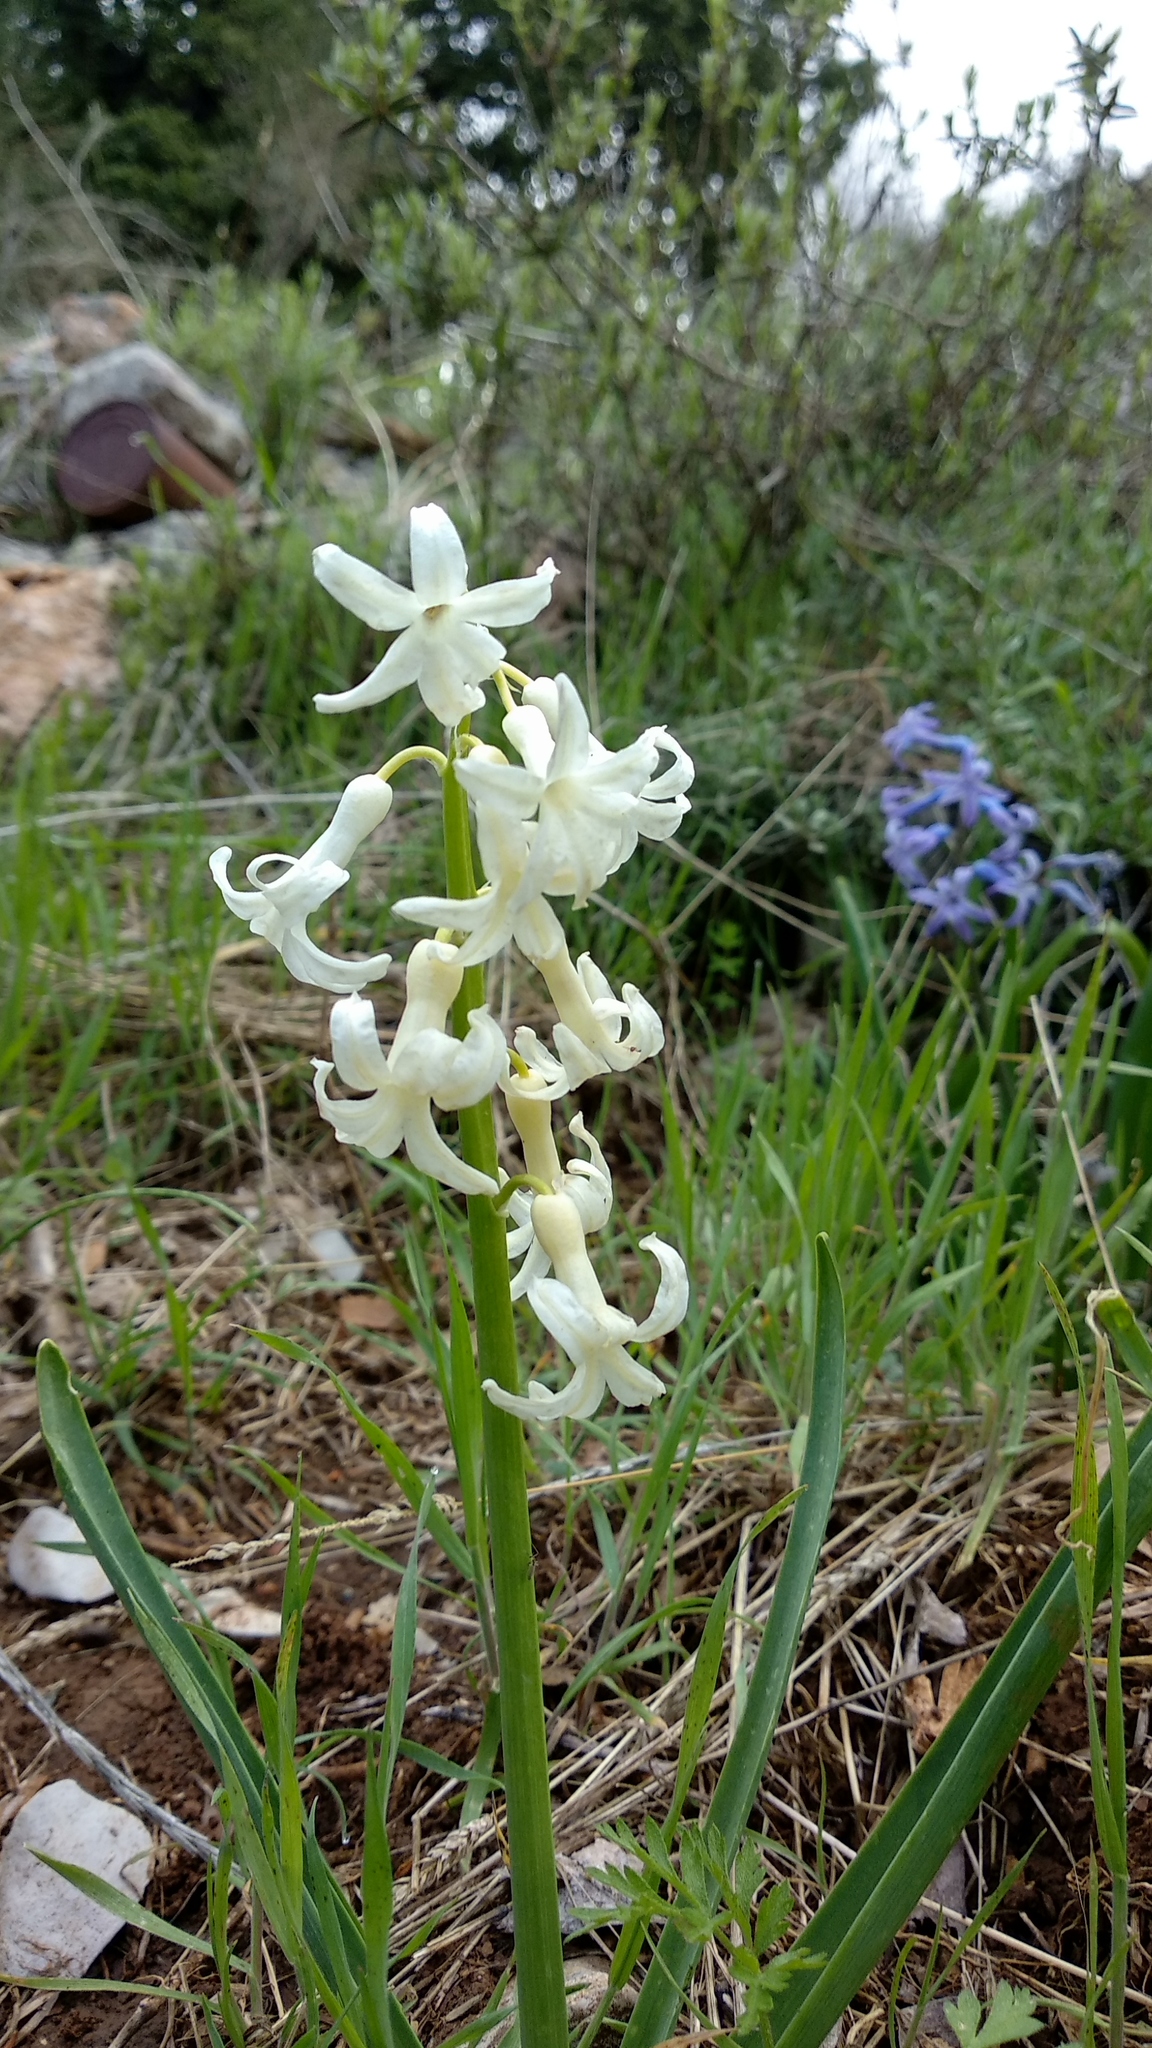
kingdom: Plantae
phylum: Tracheophyta
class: Liliopsida
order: Asparagales
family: Asparagaceae
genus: Hyacinthus
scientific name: Hyacinthus orientalis
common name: Hyacinth
